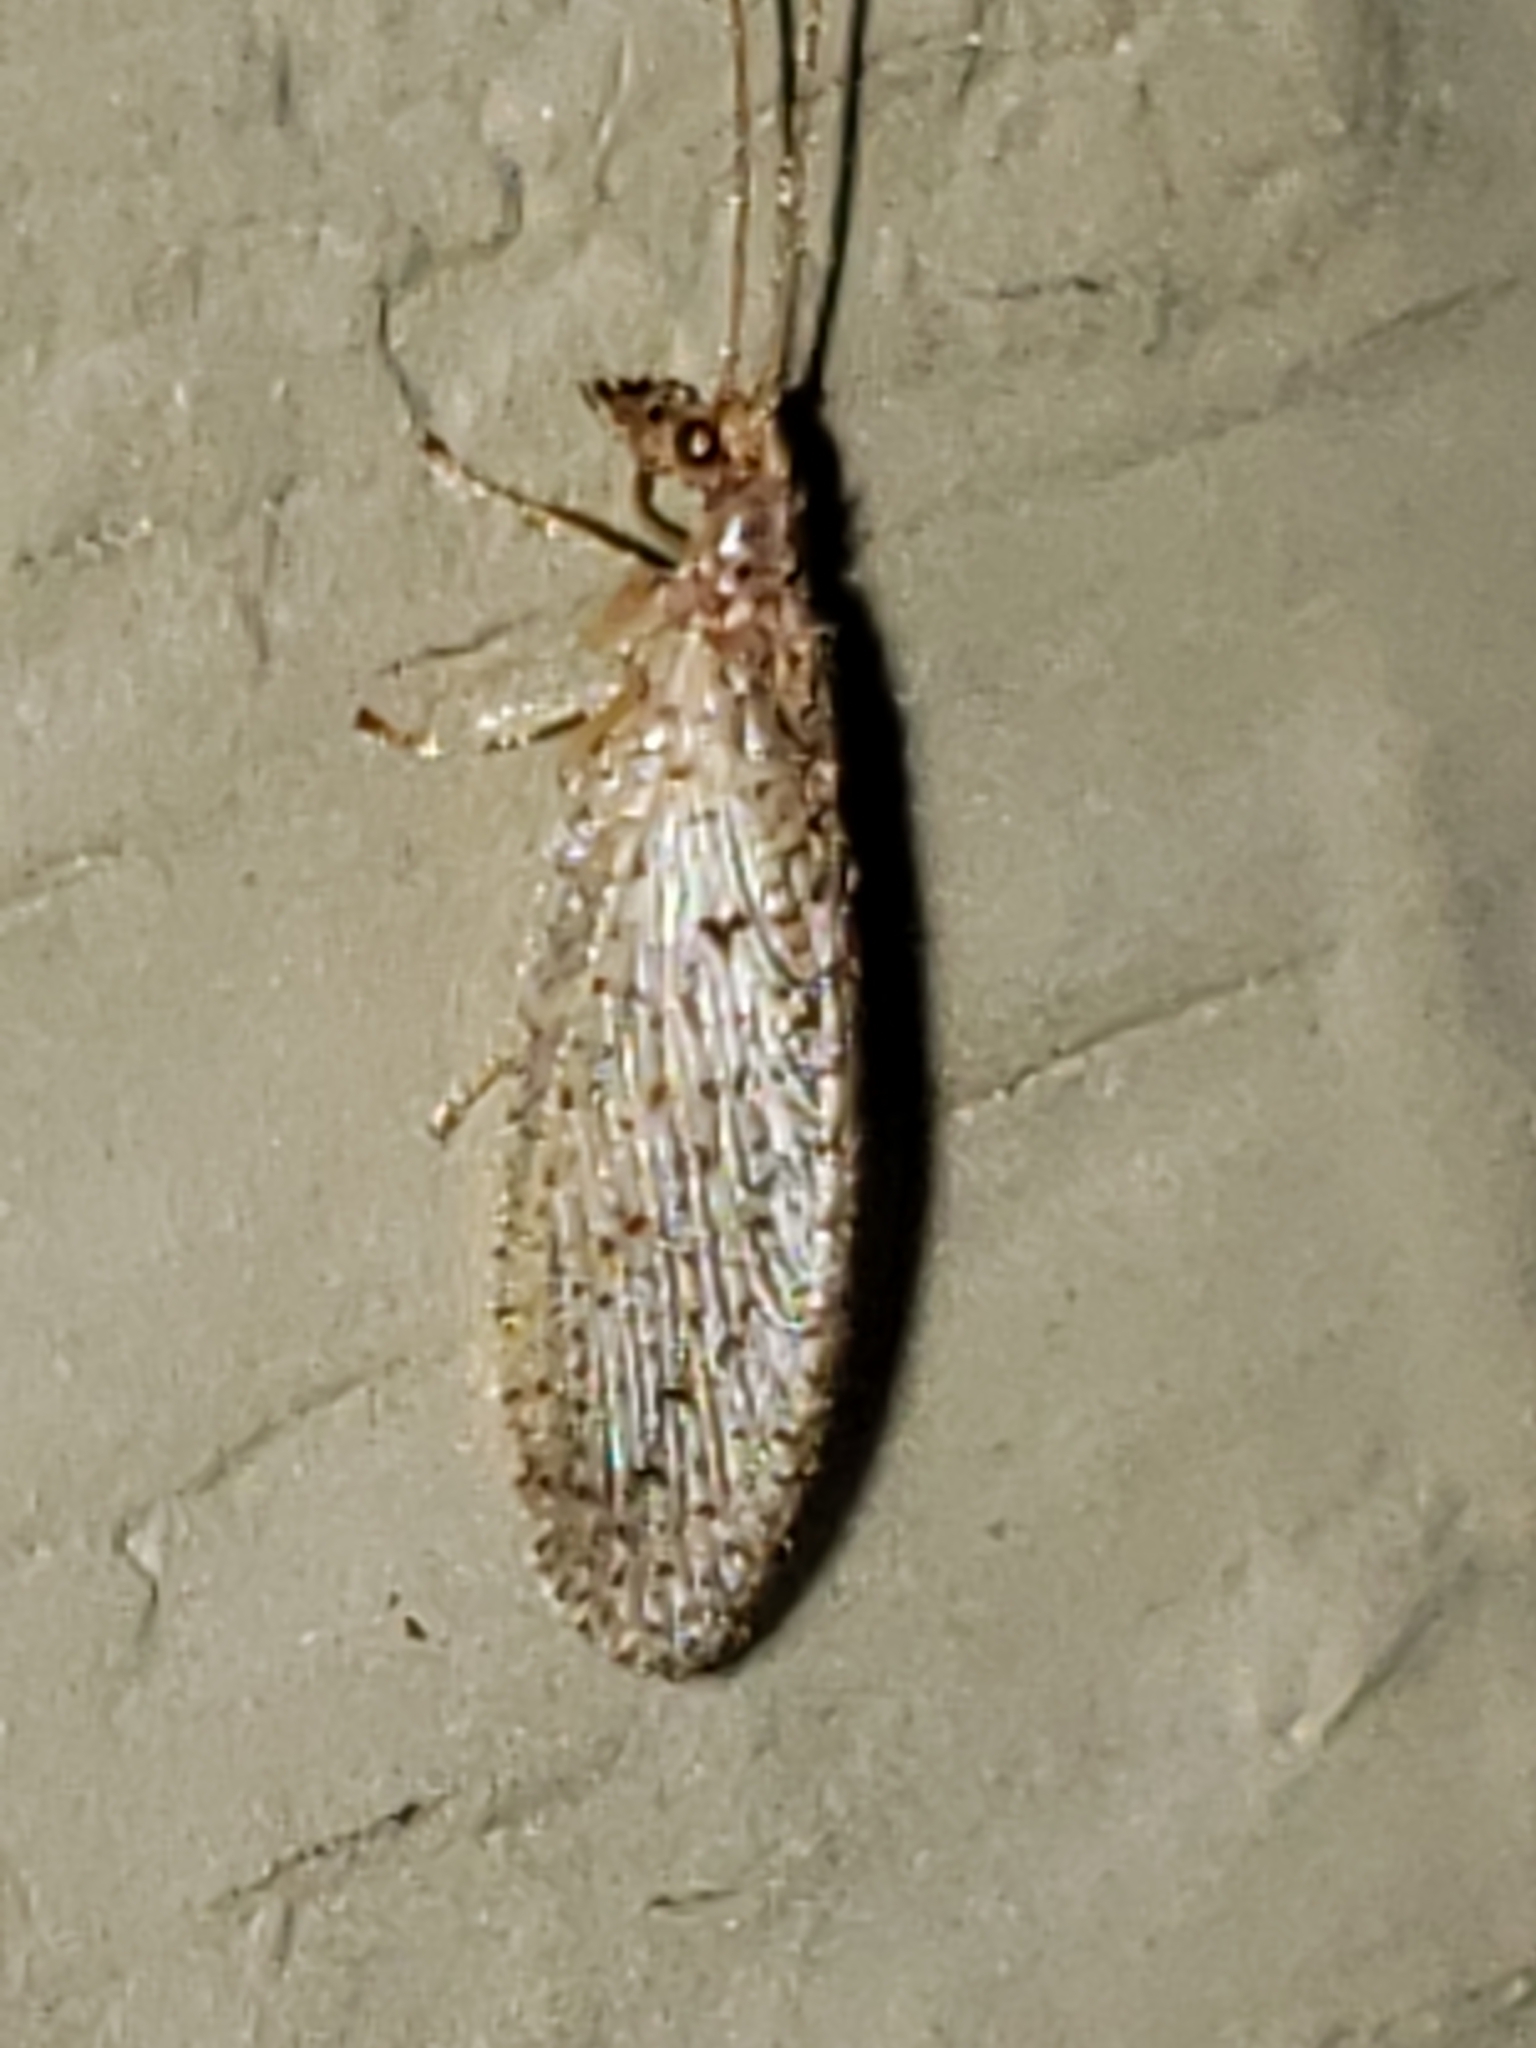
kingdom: Animalia
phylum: Arthropoda
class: Insecta
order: Neuroptera
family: Hemerobiidae
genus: Micromus
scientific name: Micromus subanticus
